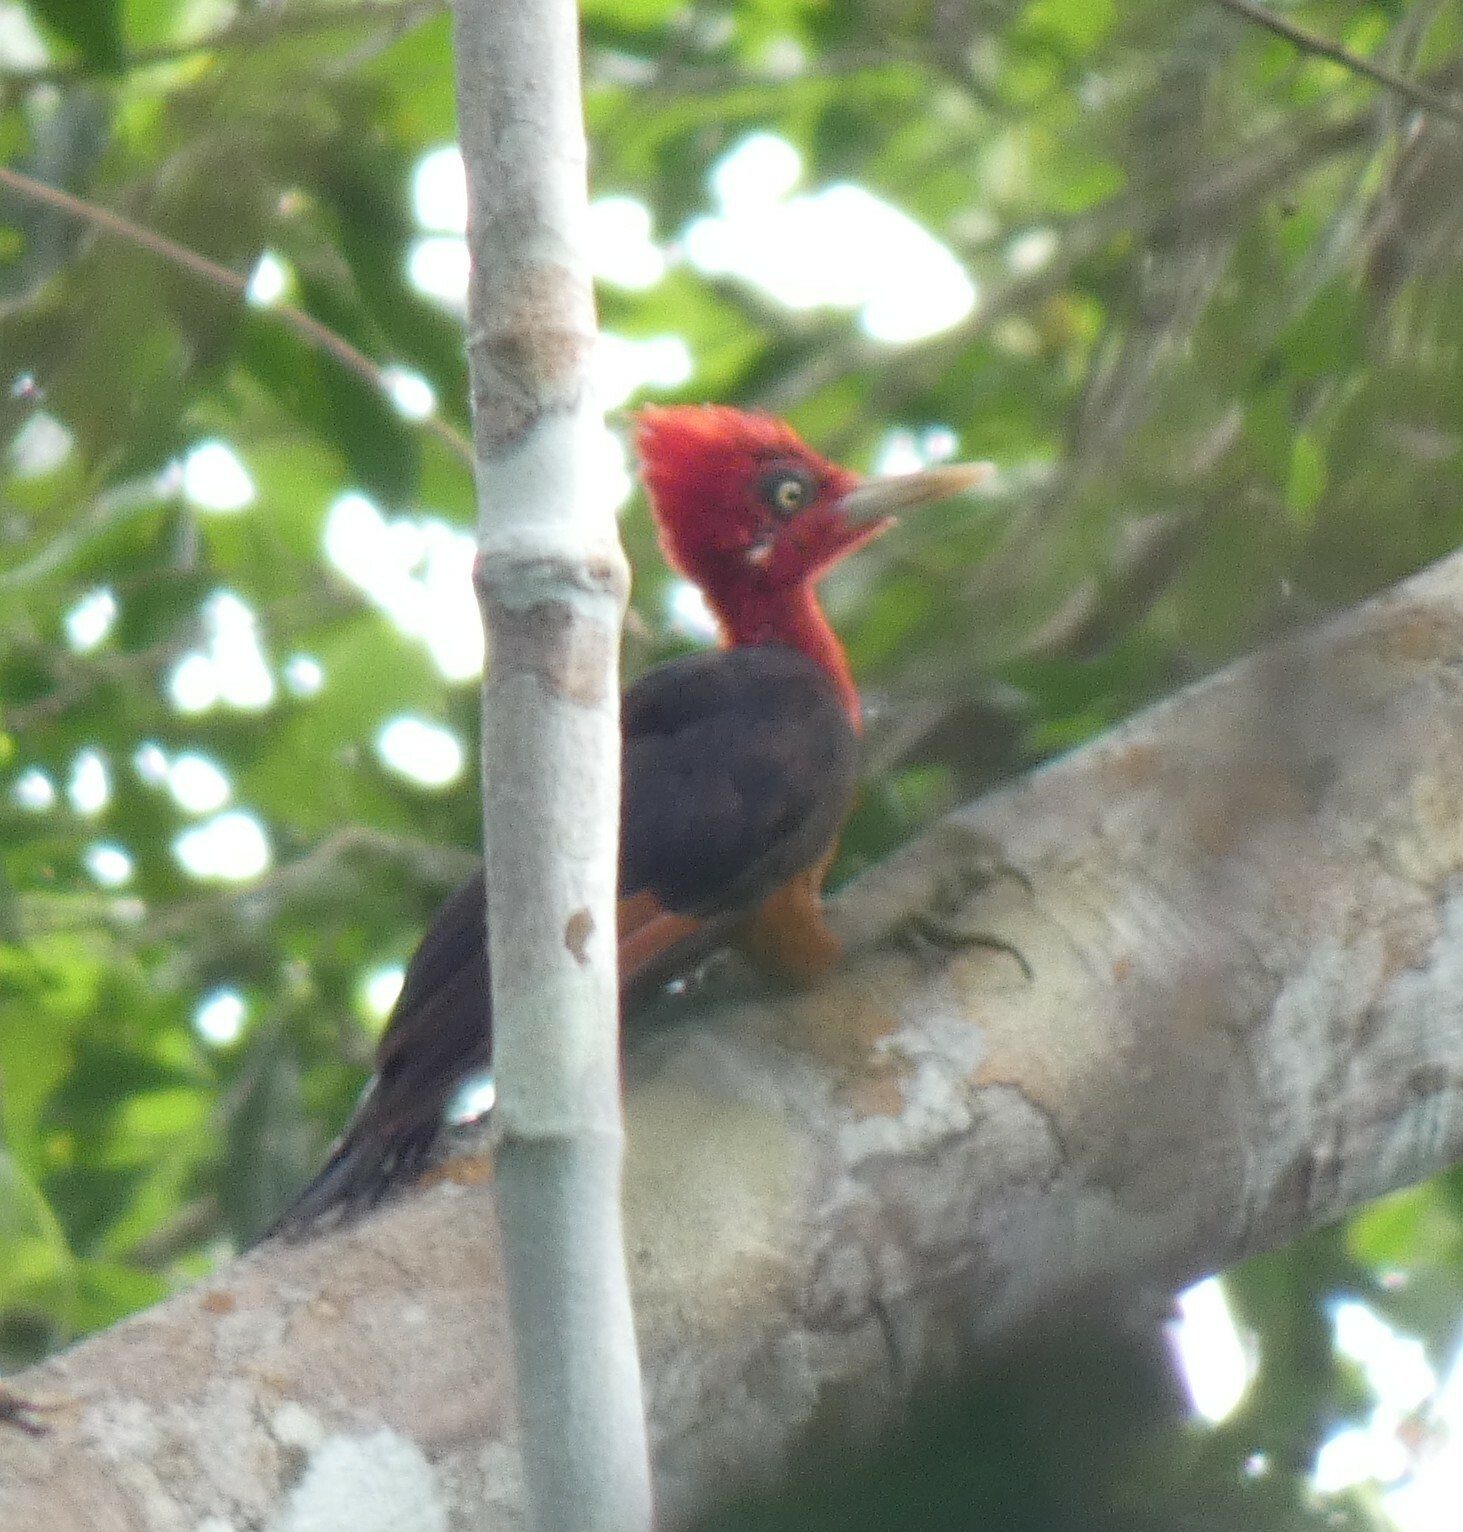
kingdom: Animalia
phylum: Chordata
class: Aves
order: Piciformes
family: Picidae
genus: Campephilus
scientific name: Campephilus rubricollis
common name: Red-necked woodpecker
